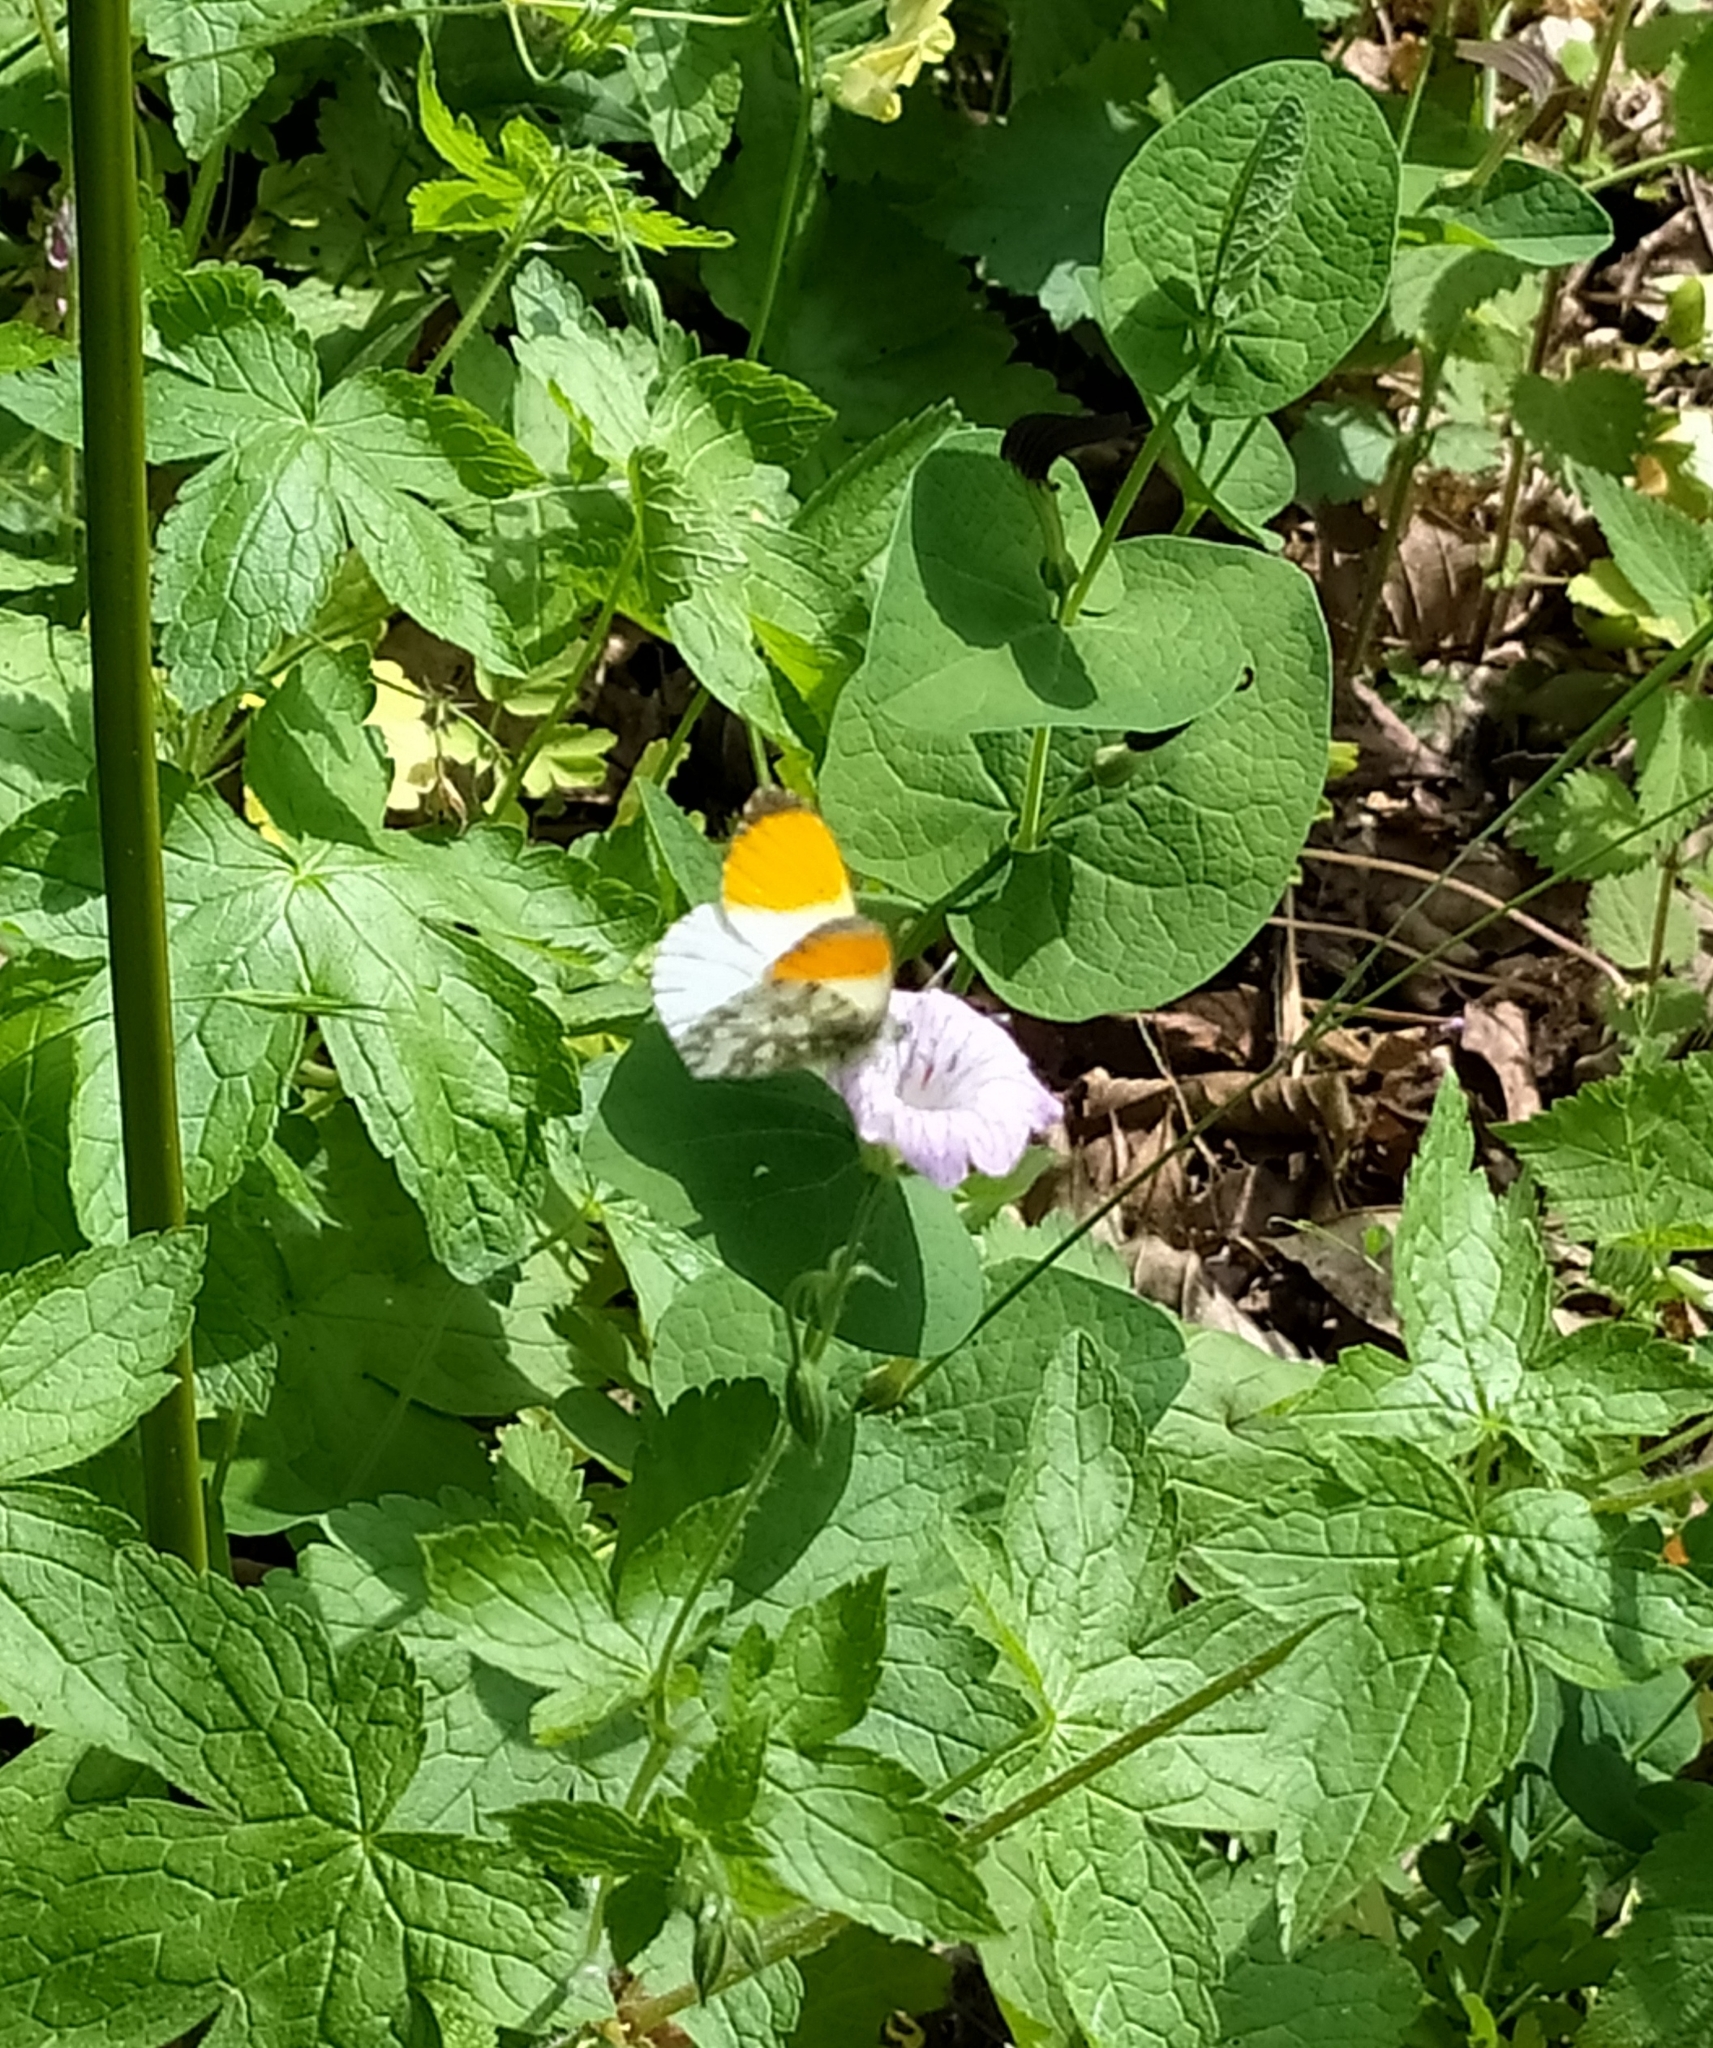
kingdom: Animalia
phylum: Arthropoda
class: Insecta
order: Lepidoptera
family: Pieridae
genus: Anthocharis
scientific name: Anthocharis cardamines
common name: Orange-tip
